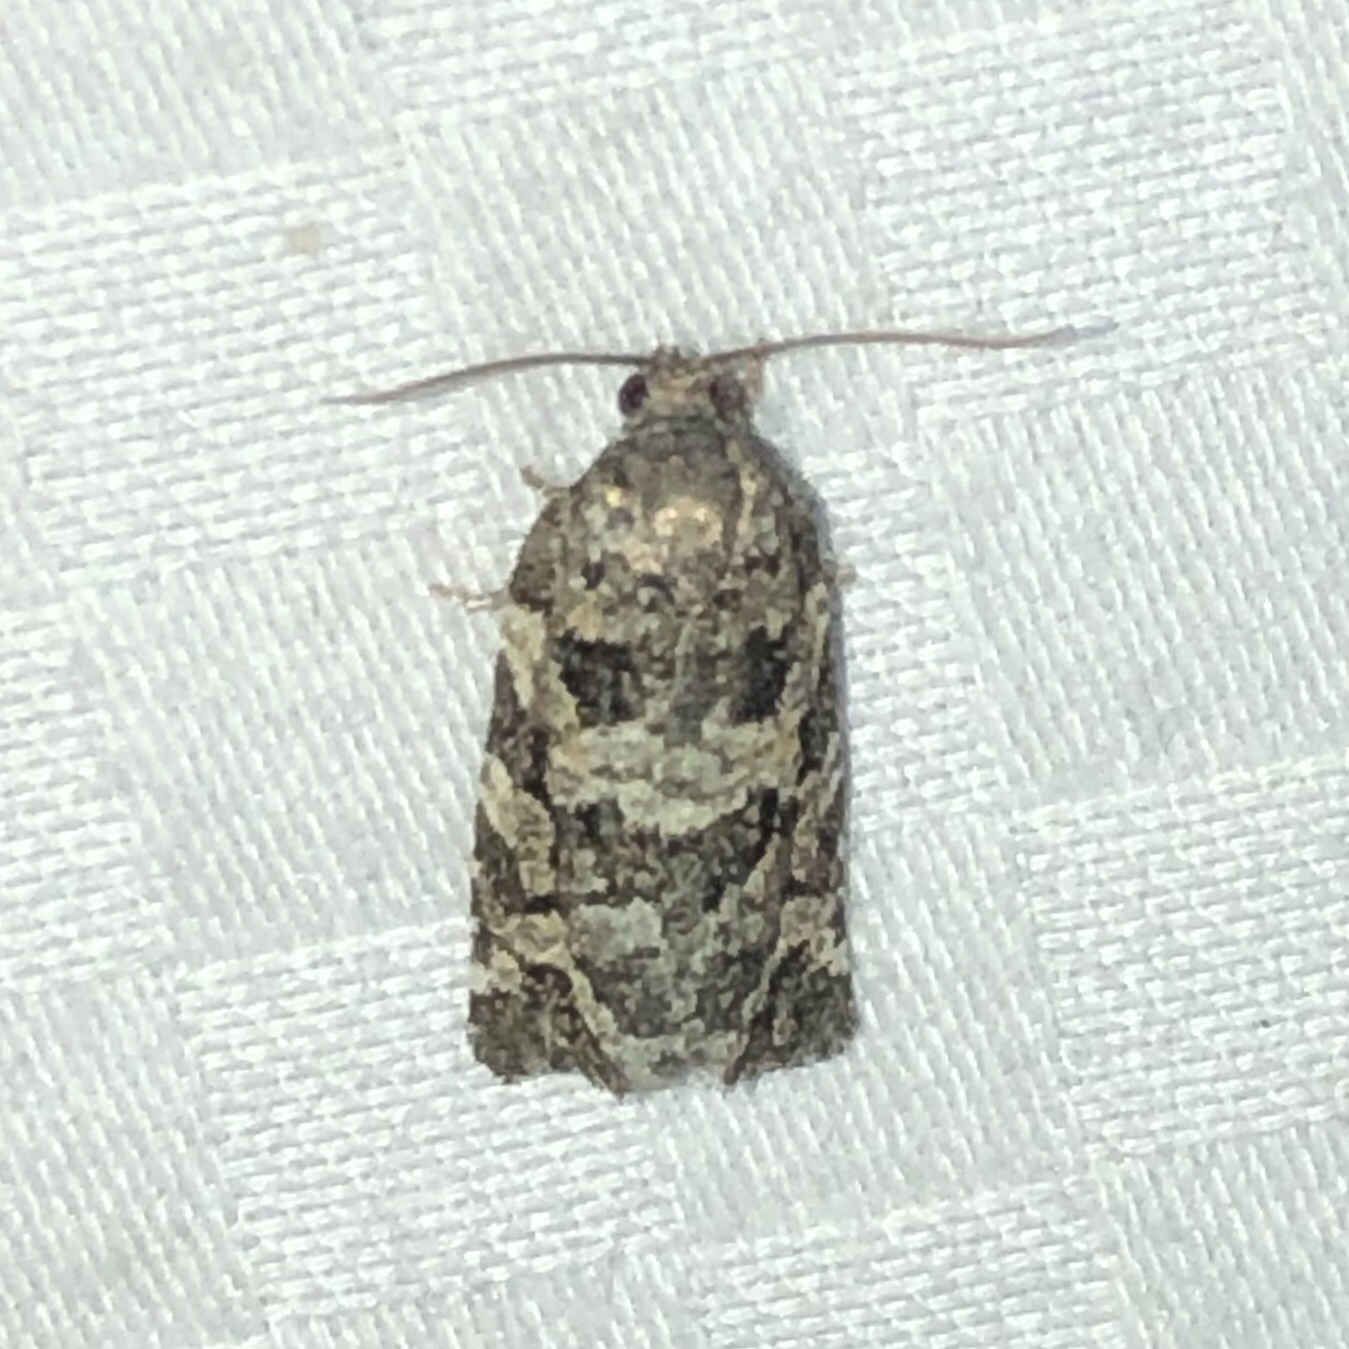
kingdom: Animalia
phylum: Arthropoda
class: Insecta
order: Lepidoptera
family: Tortricidae
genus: Archips
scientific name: Archips packardiana
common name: Spring spruce needle moth
